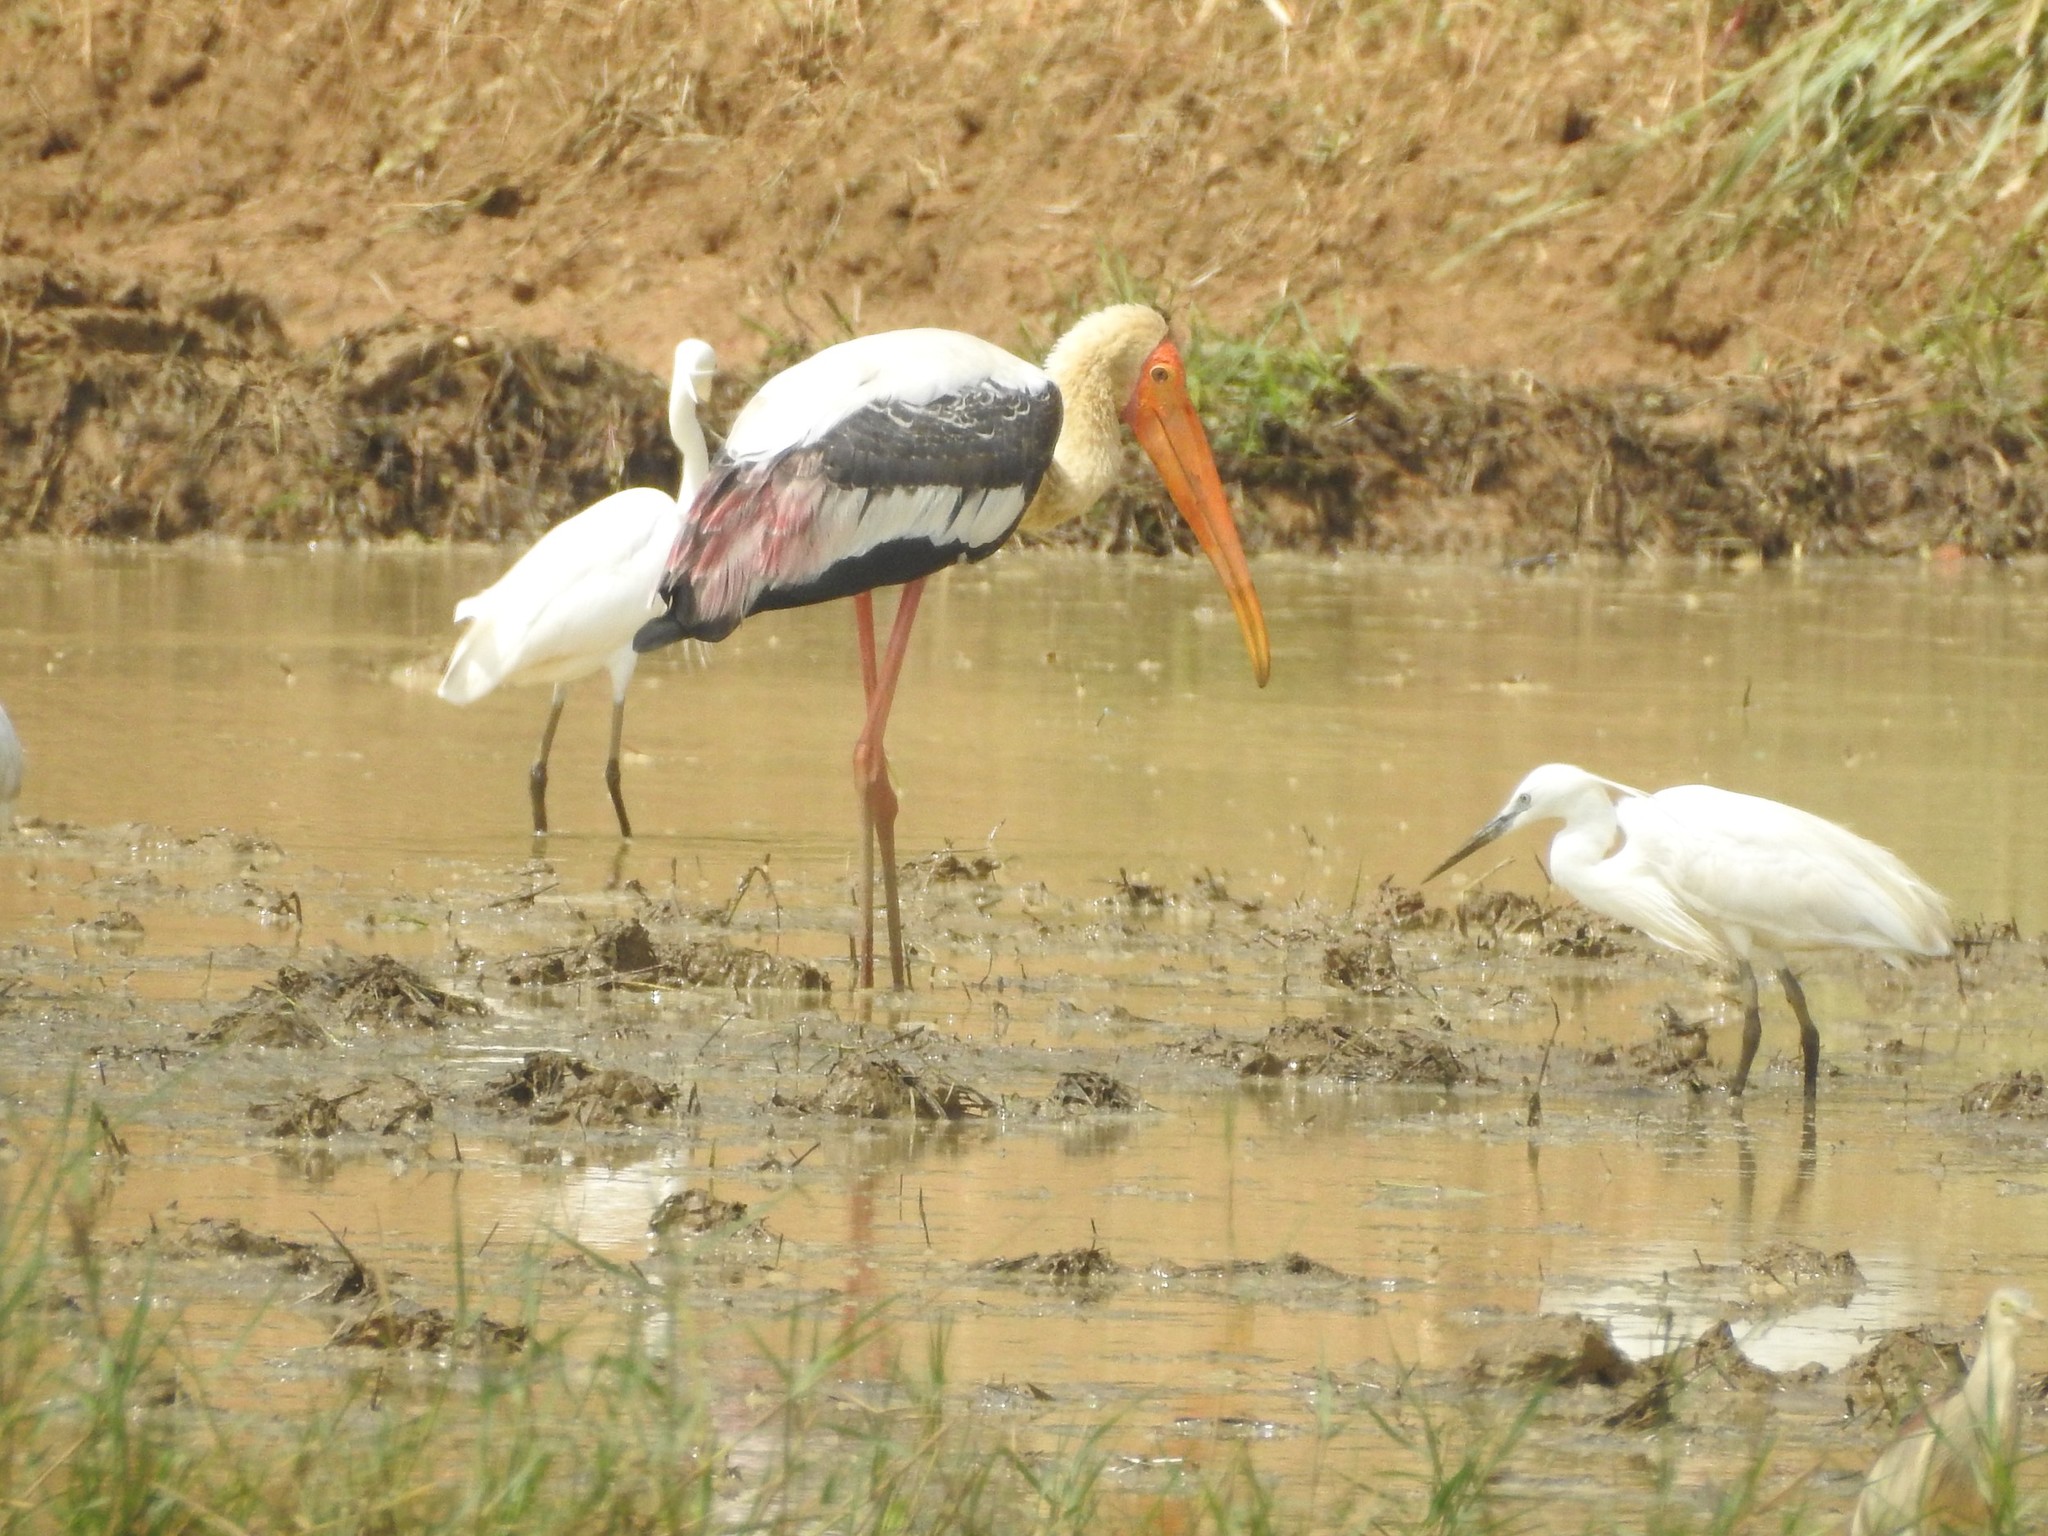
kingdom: Animalia
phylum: Chordata
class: Aves
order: Ciconiiformes
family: Ciconiidae
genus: Mycteria
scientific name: Mycteria leucocephala
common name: Painted stork
